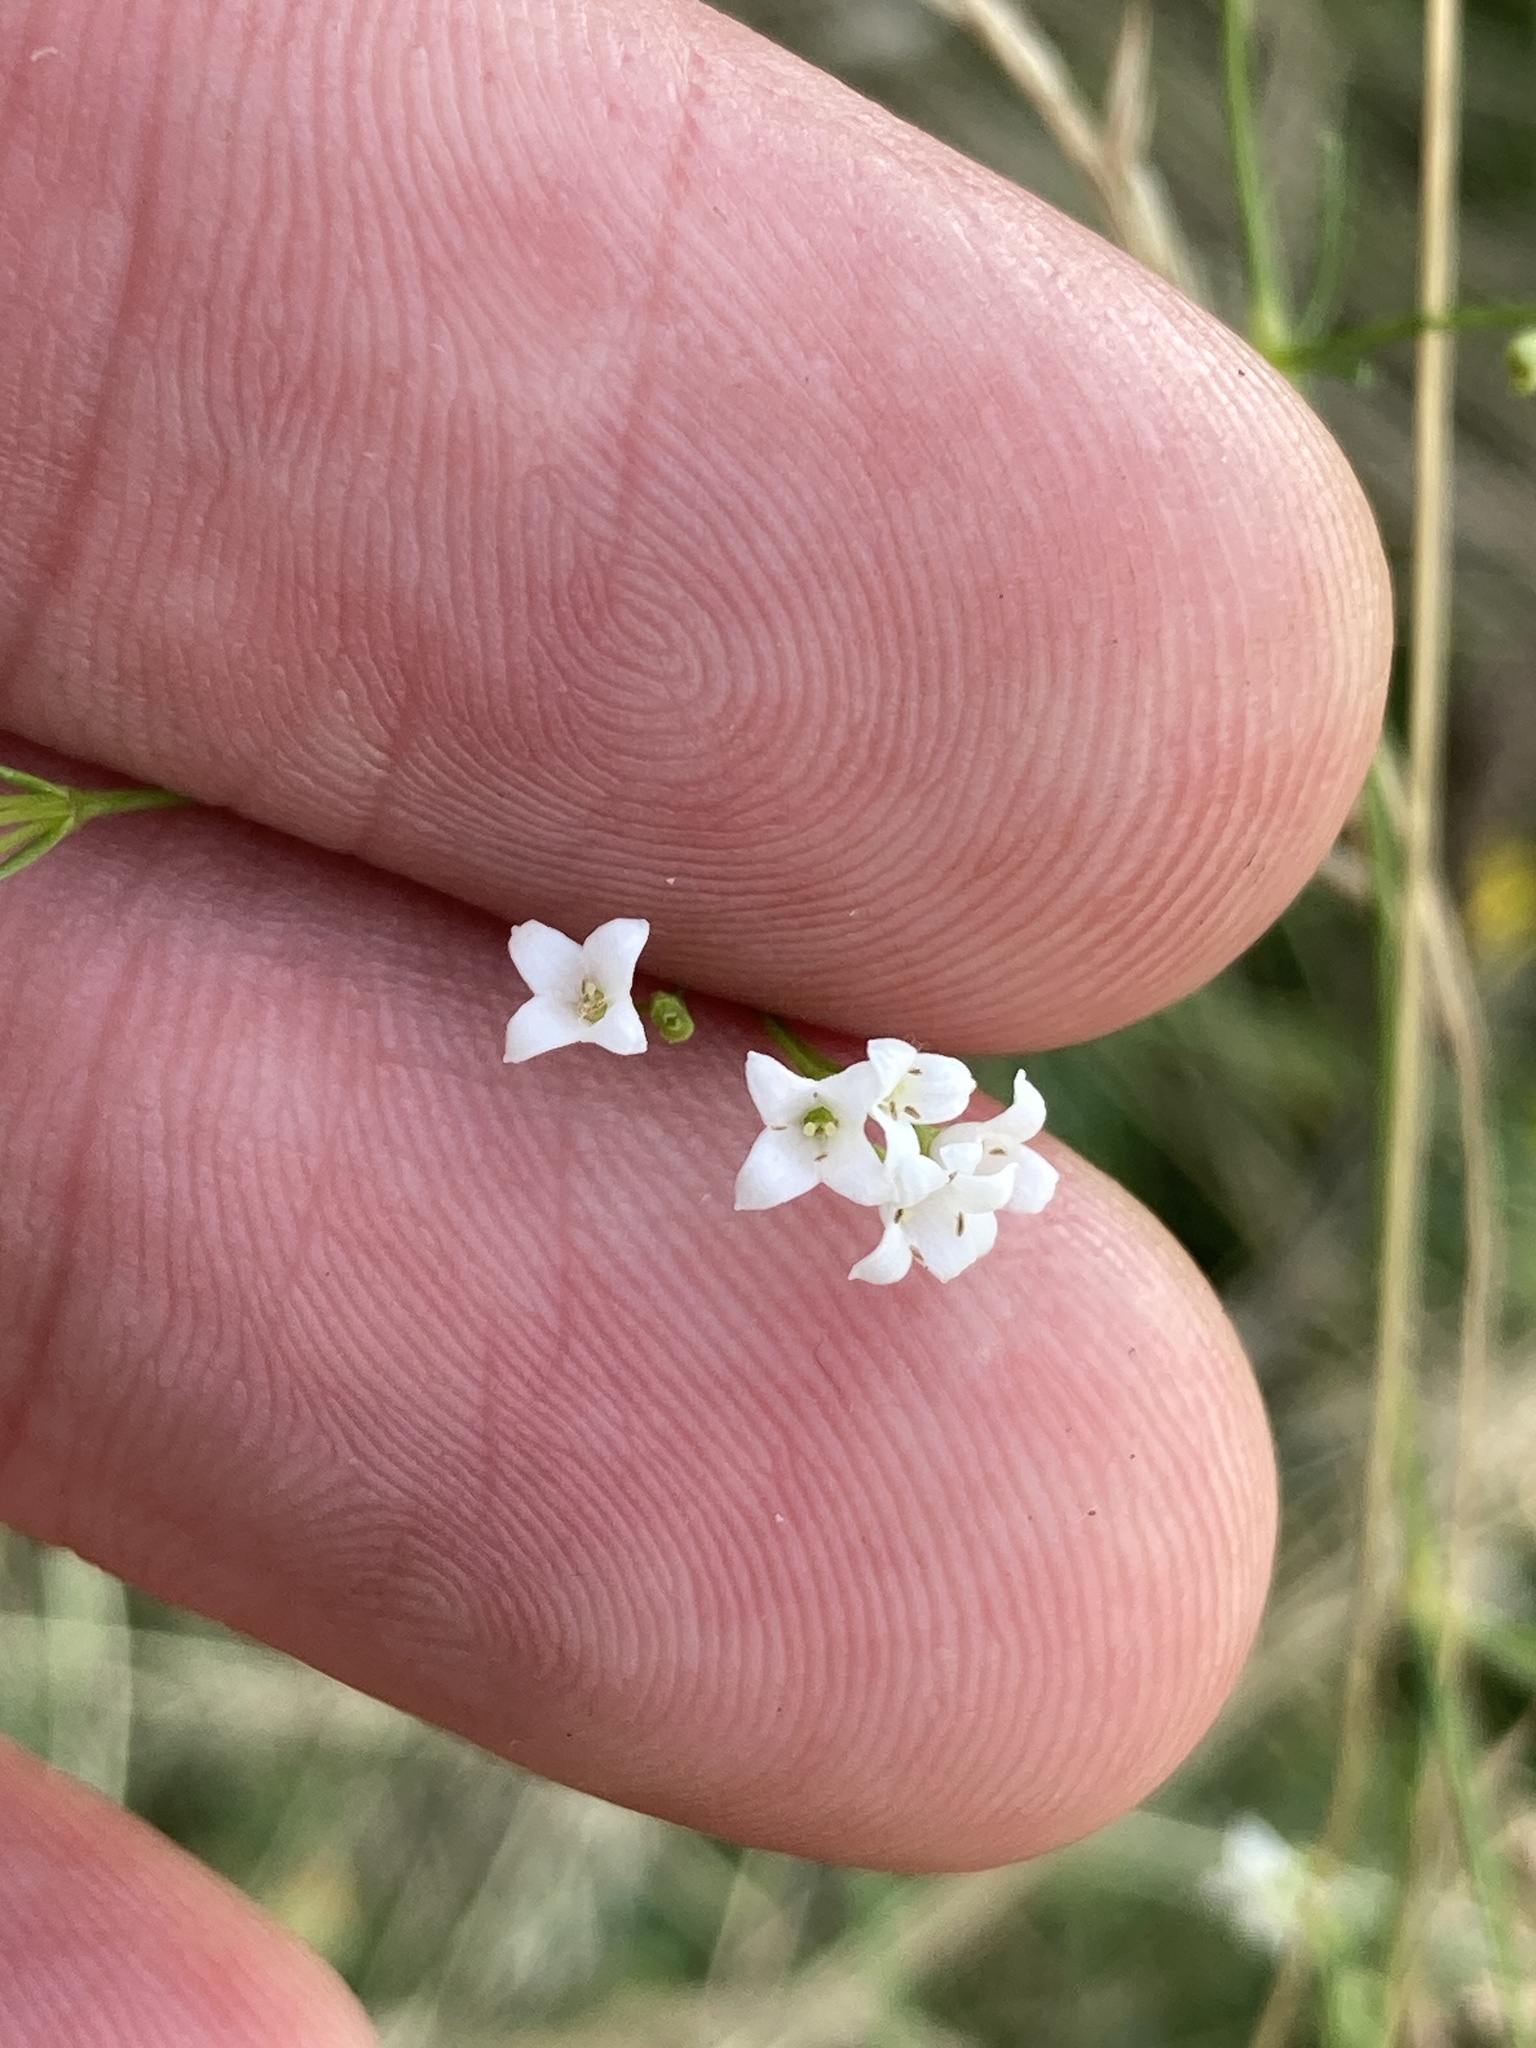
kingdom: Plantae
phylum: Tracheophyta
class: Magnoliopsida
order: Gentianales
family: Rubiaceae
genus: Galium
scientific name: Galium octonarium
